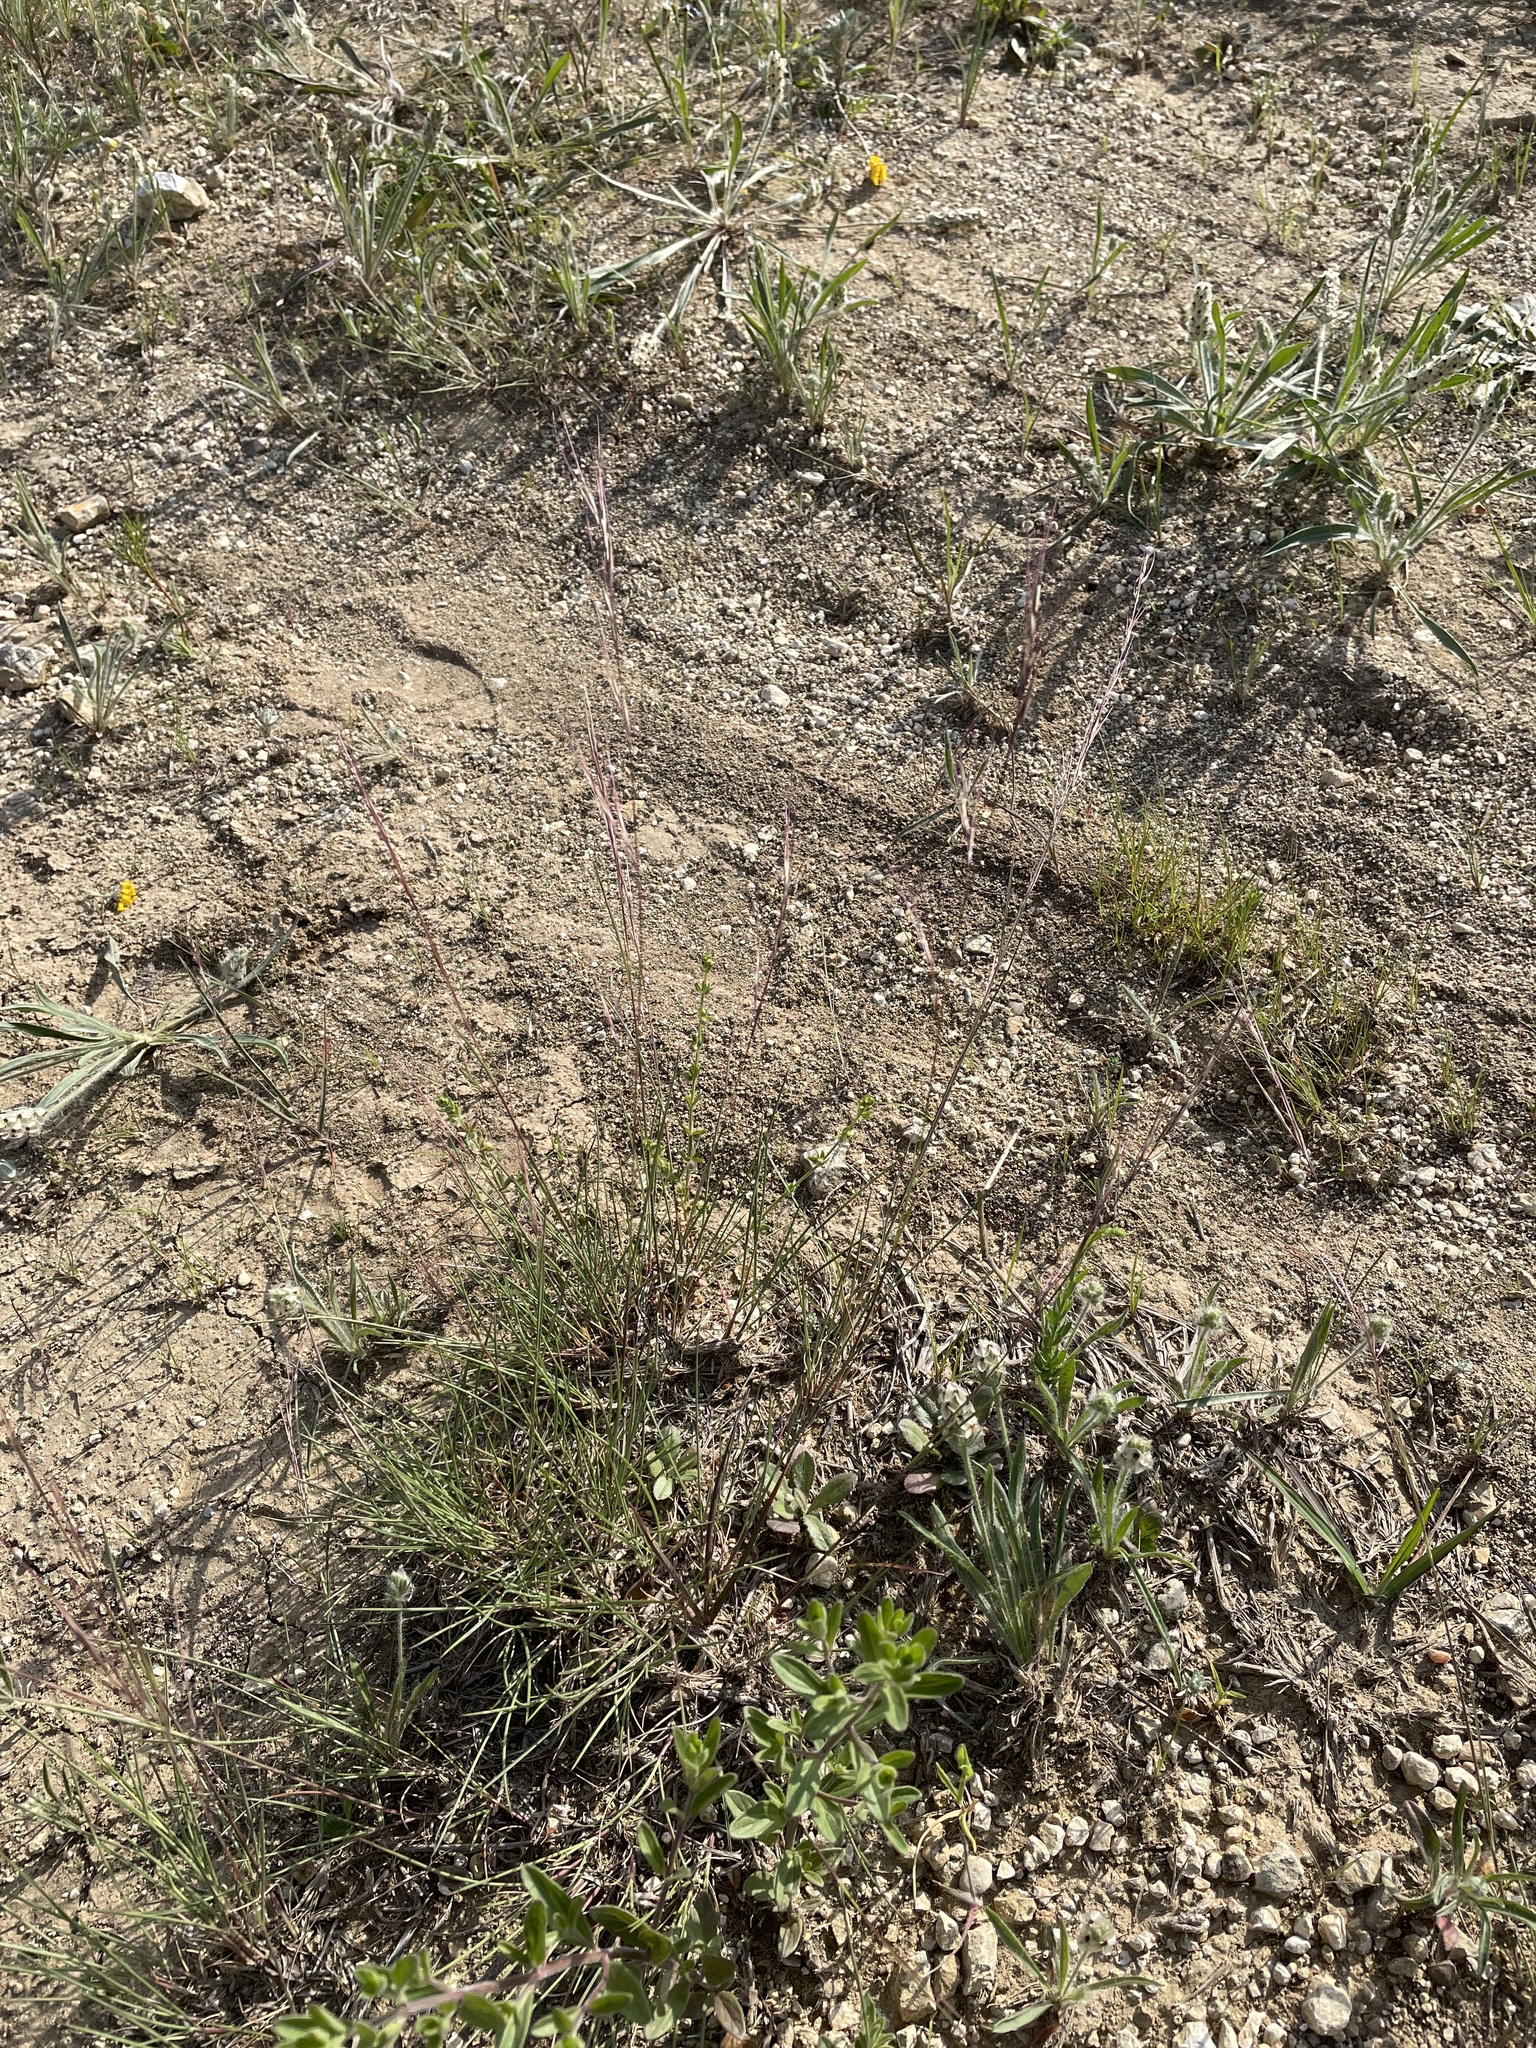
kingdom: Plantae
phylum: Tracheophyta
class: Liliopsida
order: Poales
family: Poaceae
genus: Aristida
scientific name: Aristida purpurea
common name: Purple threeawn
